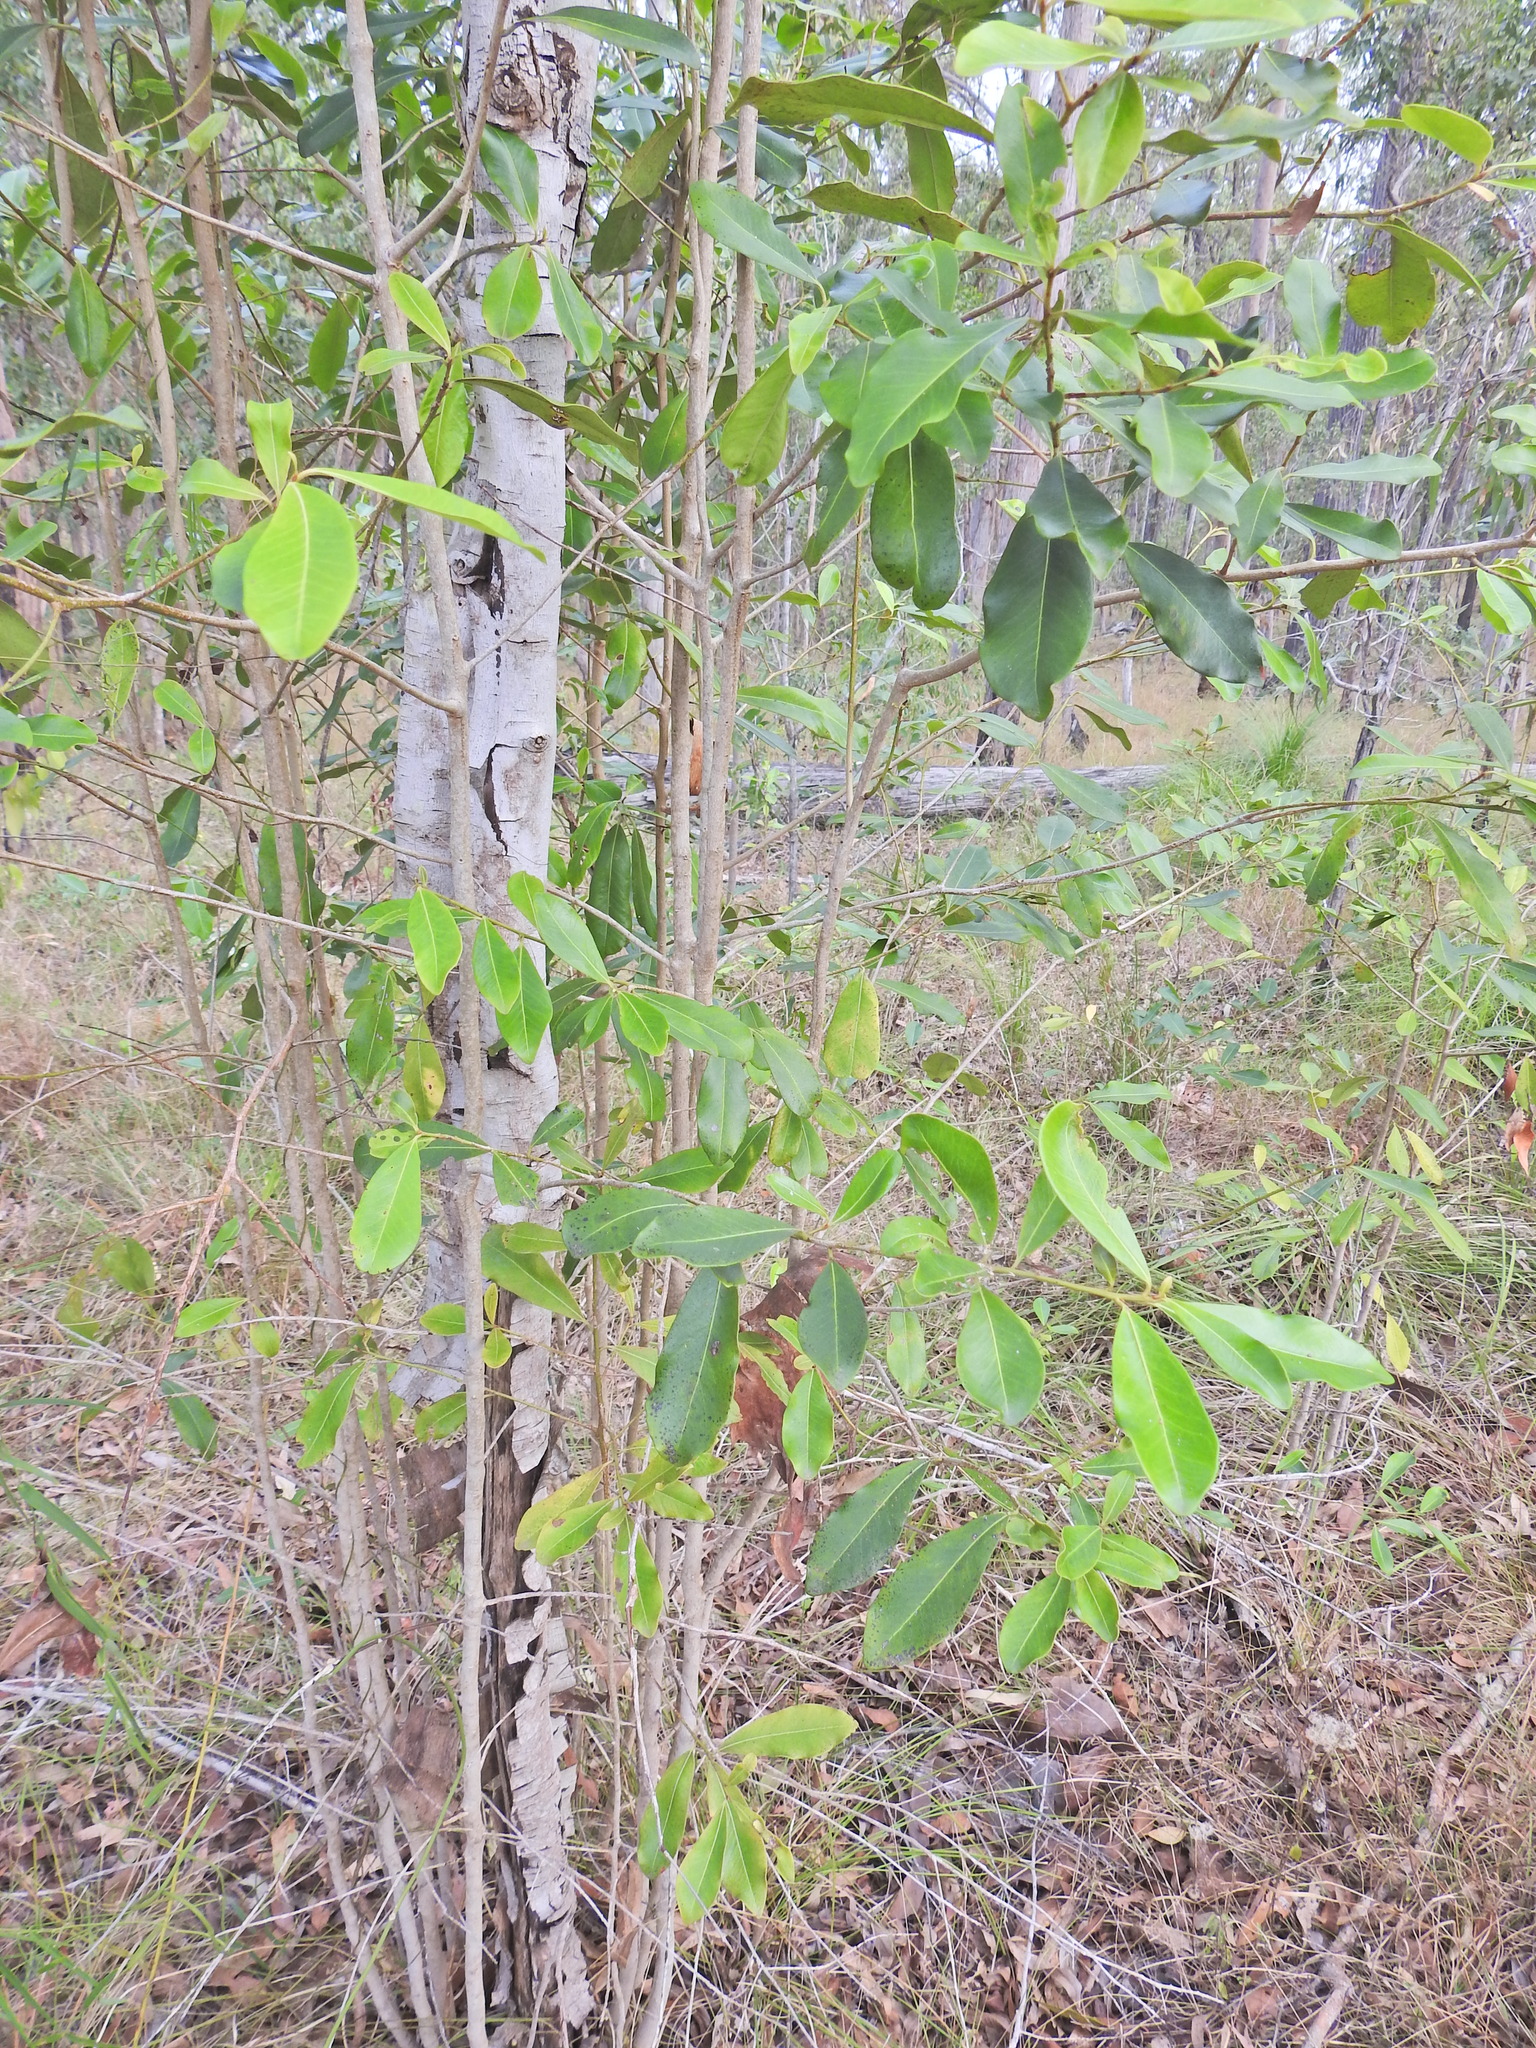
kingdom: Plantae
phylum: Tracheophyta
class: Magnoliopsida
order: Ericales
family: Primulaceae
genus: Myrsine
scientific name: Myrsine variabilis
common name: Brush muttonwood
